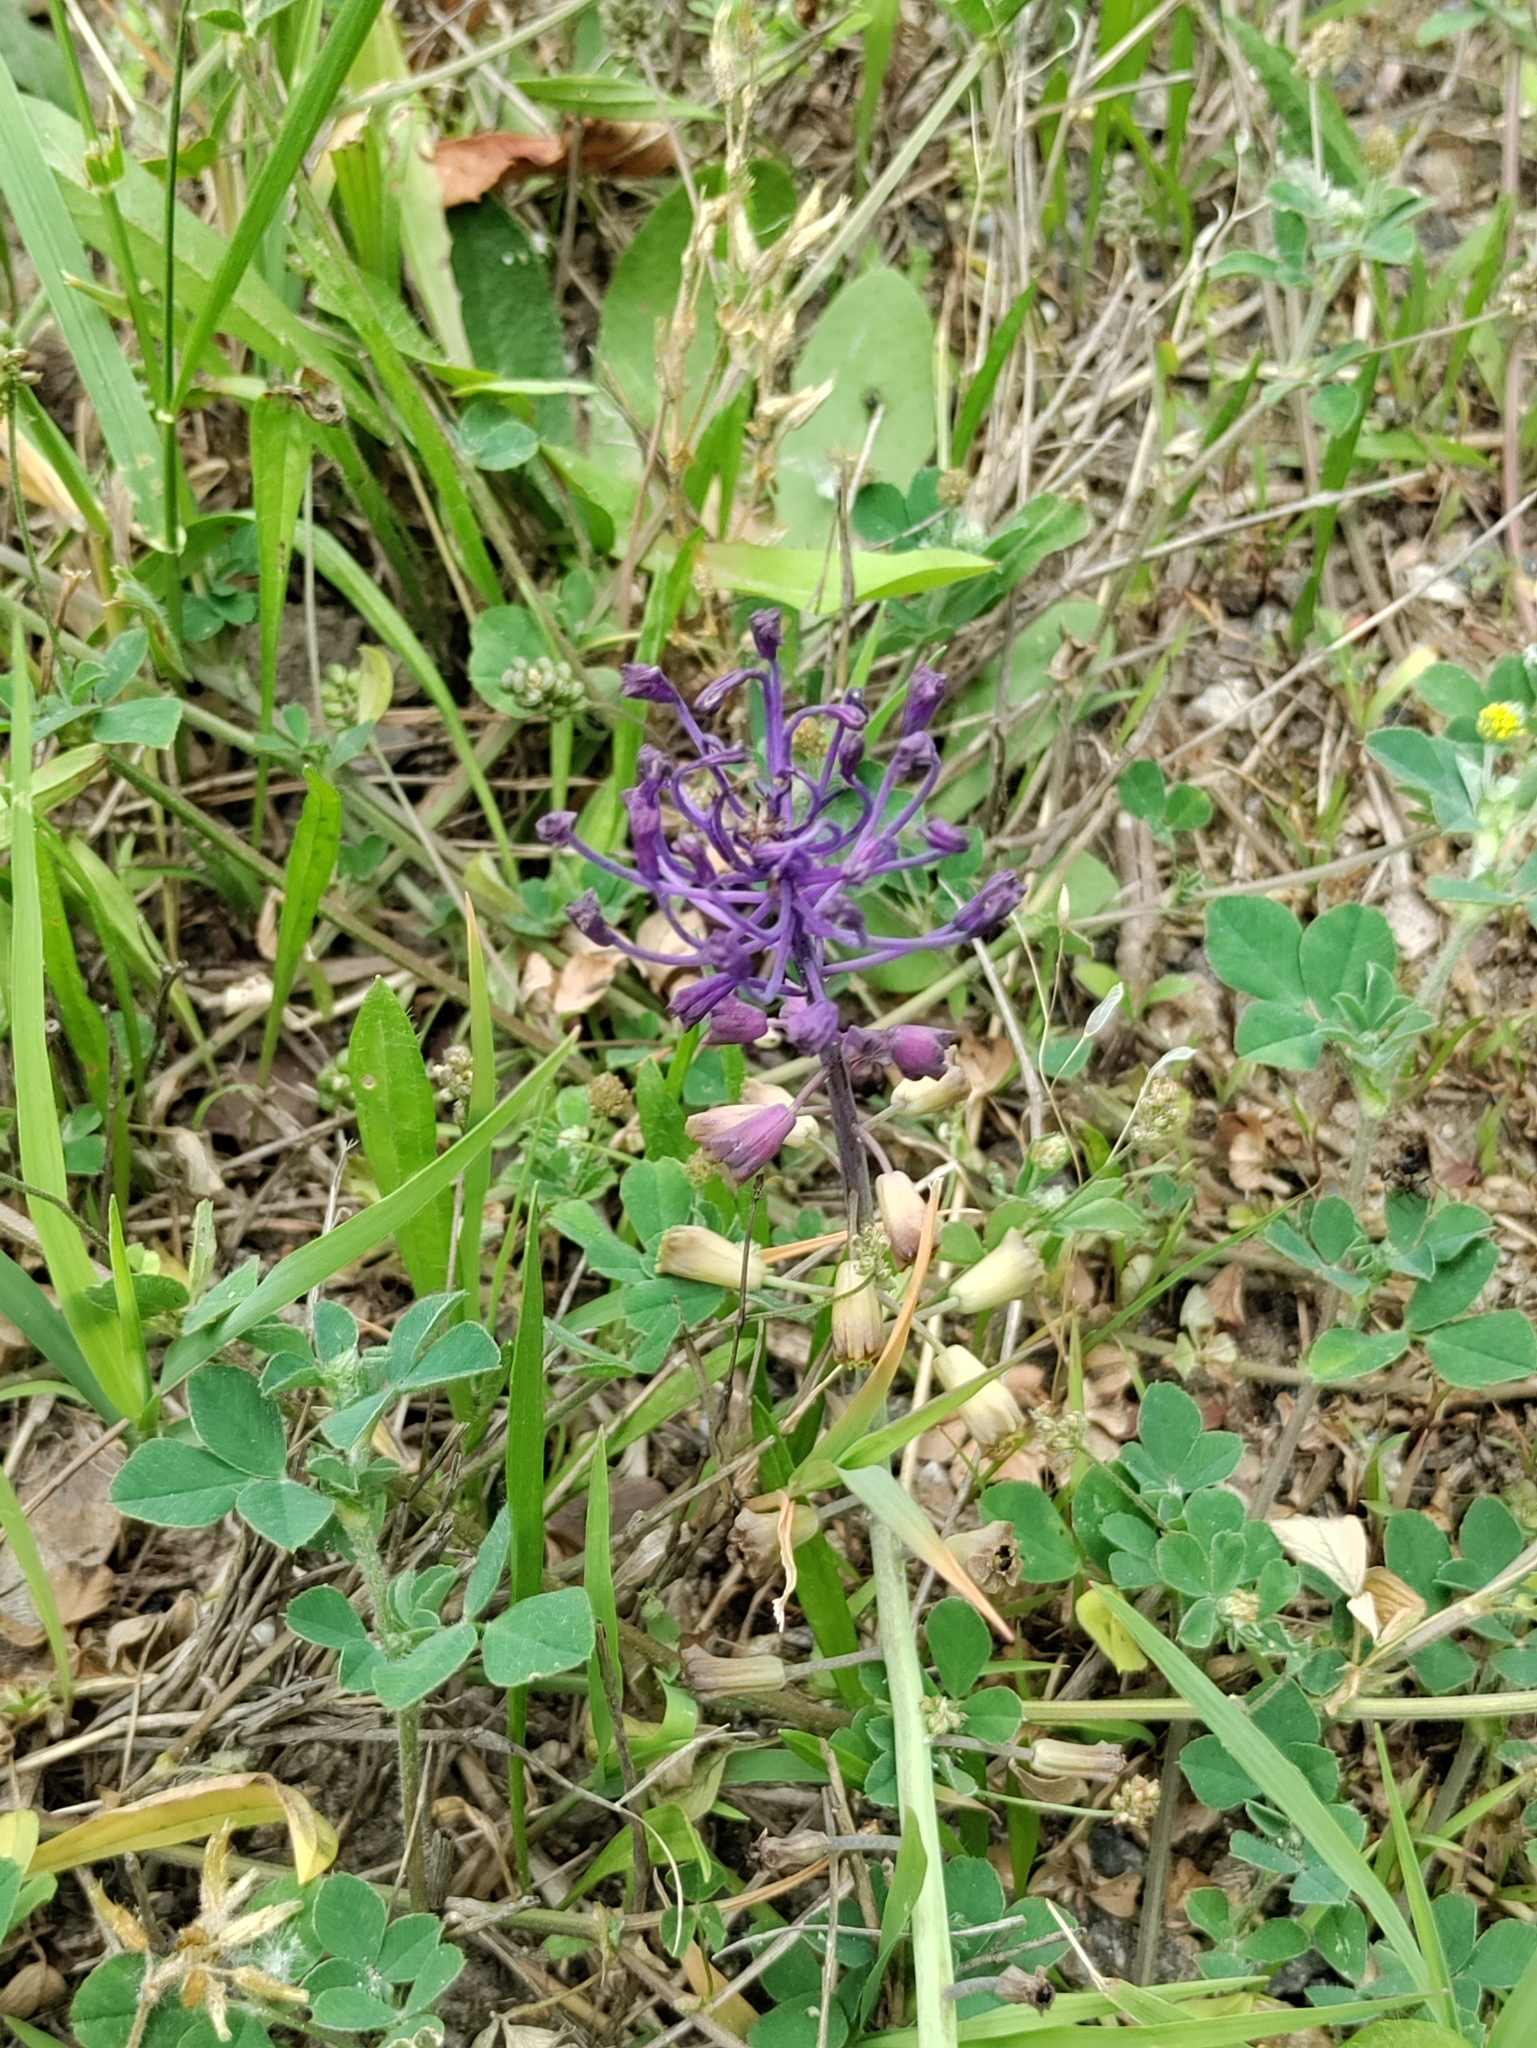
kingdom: Plantae
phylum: Tracheophyta
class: Liliopsida
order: Asparagales
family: Asparagaceae
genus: Muscari
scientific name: Muscari comosum
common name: Tassel hyacinth
